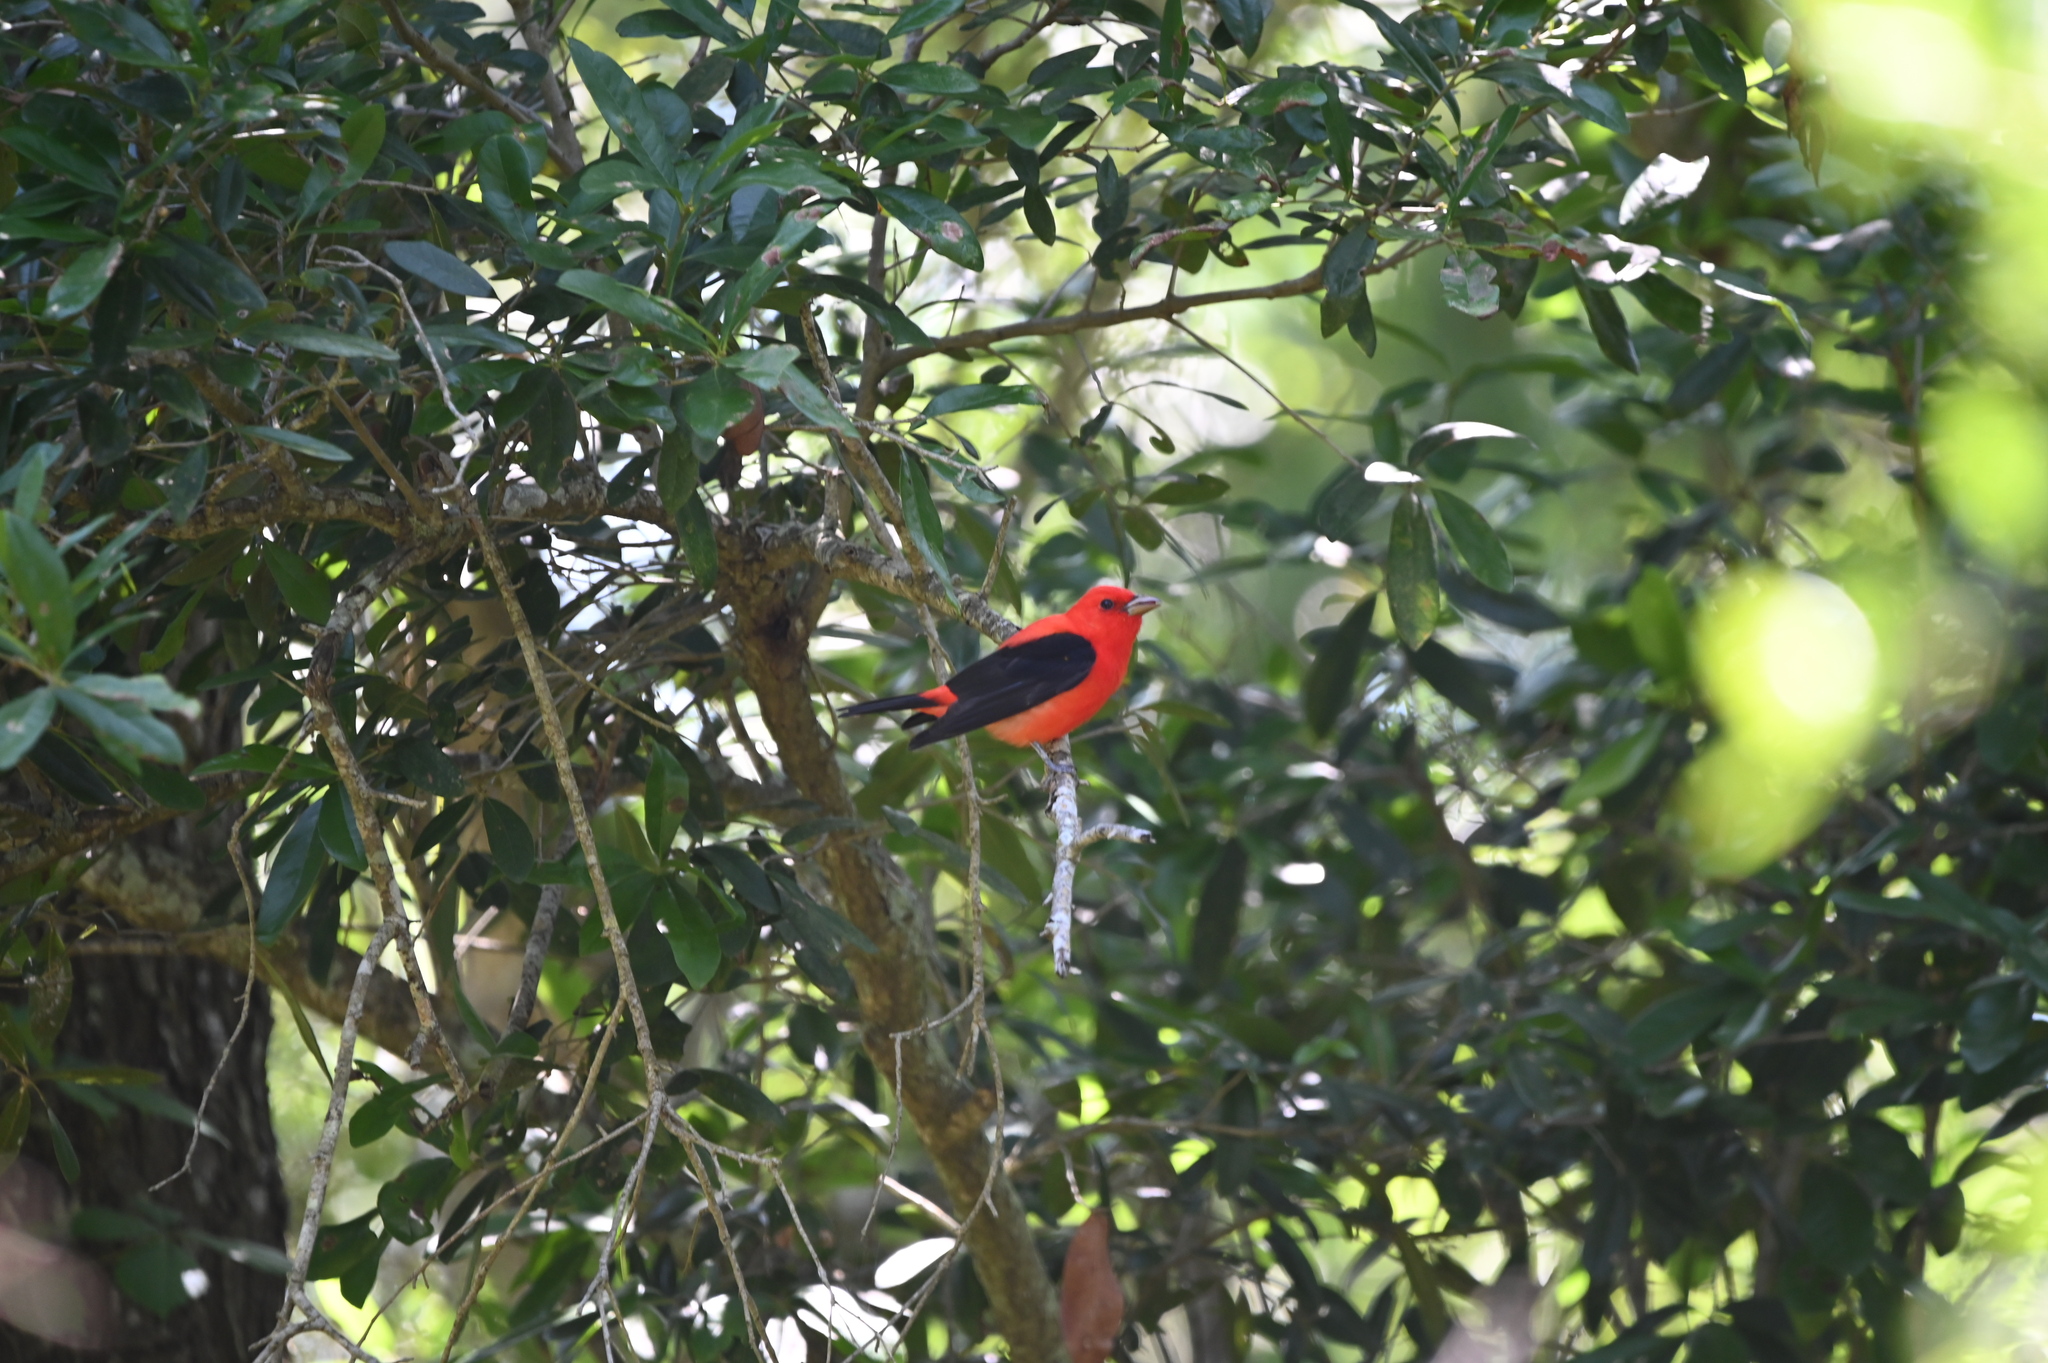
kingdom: Animalia
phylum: Chordata
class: Aves
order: Passeriformes
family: Cardinalidae
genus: Piranga
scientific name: Piranga olivacea
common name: Scarlet tanager
